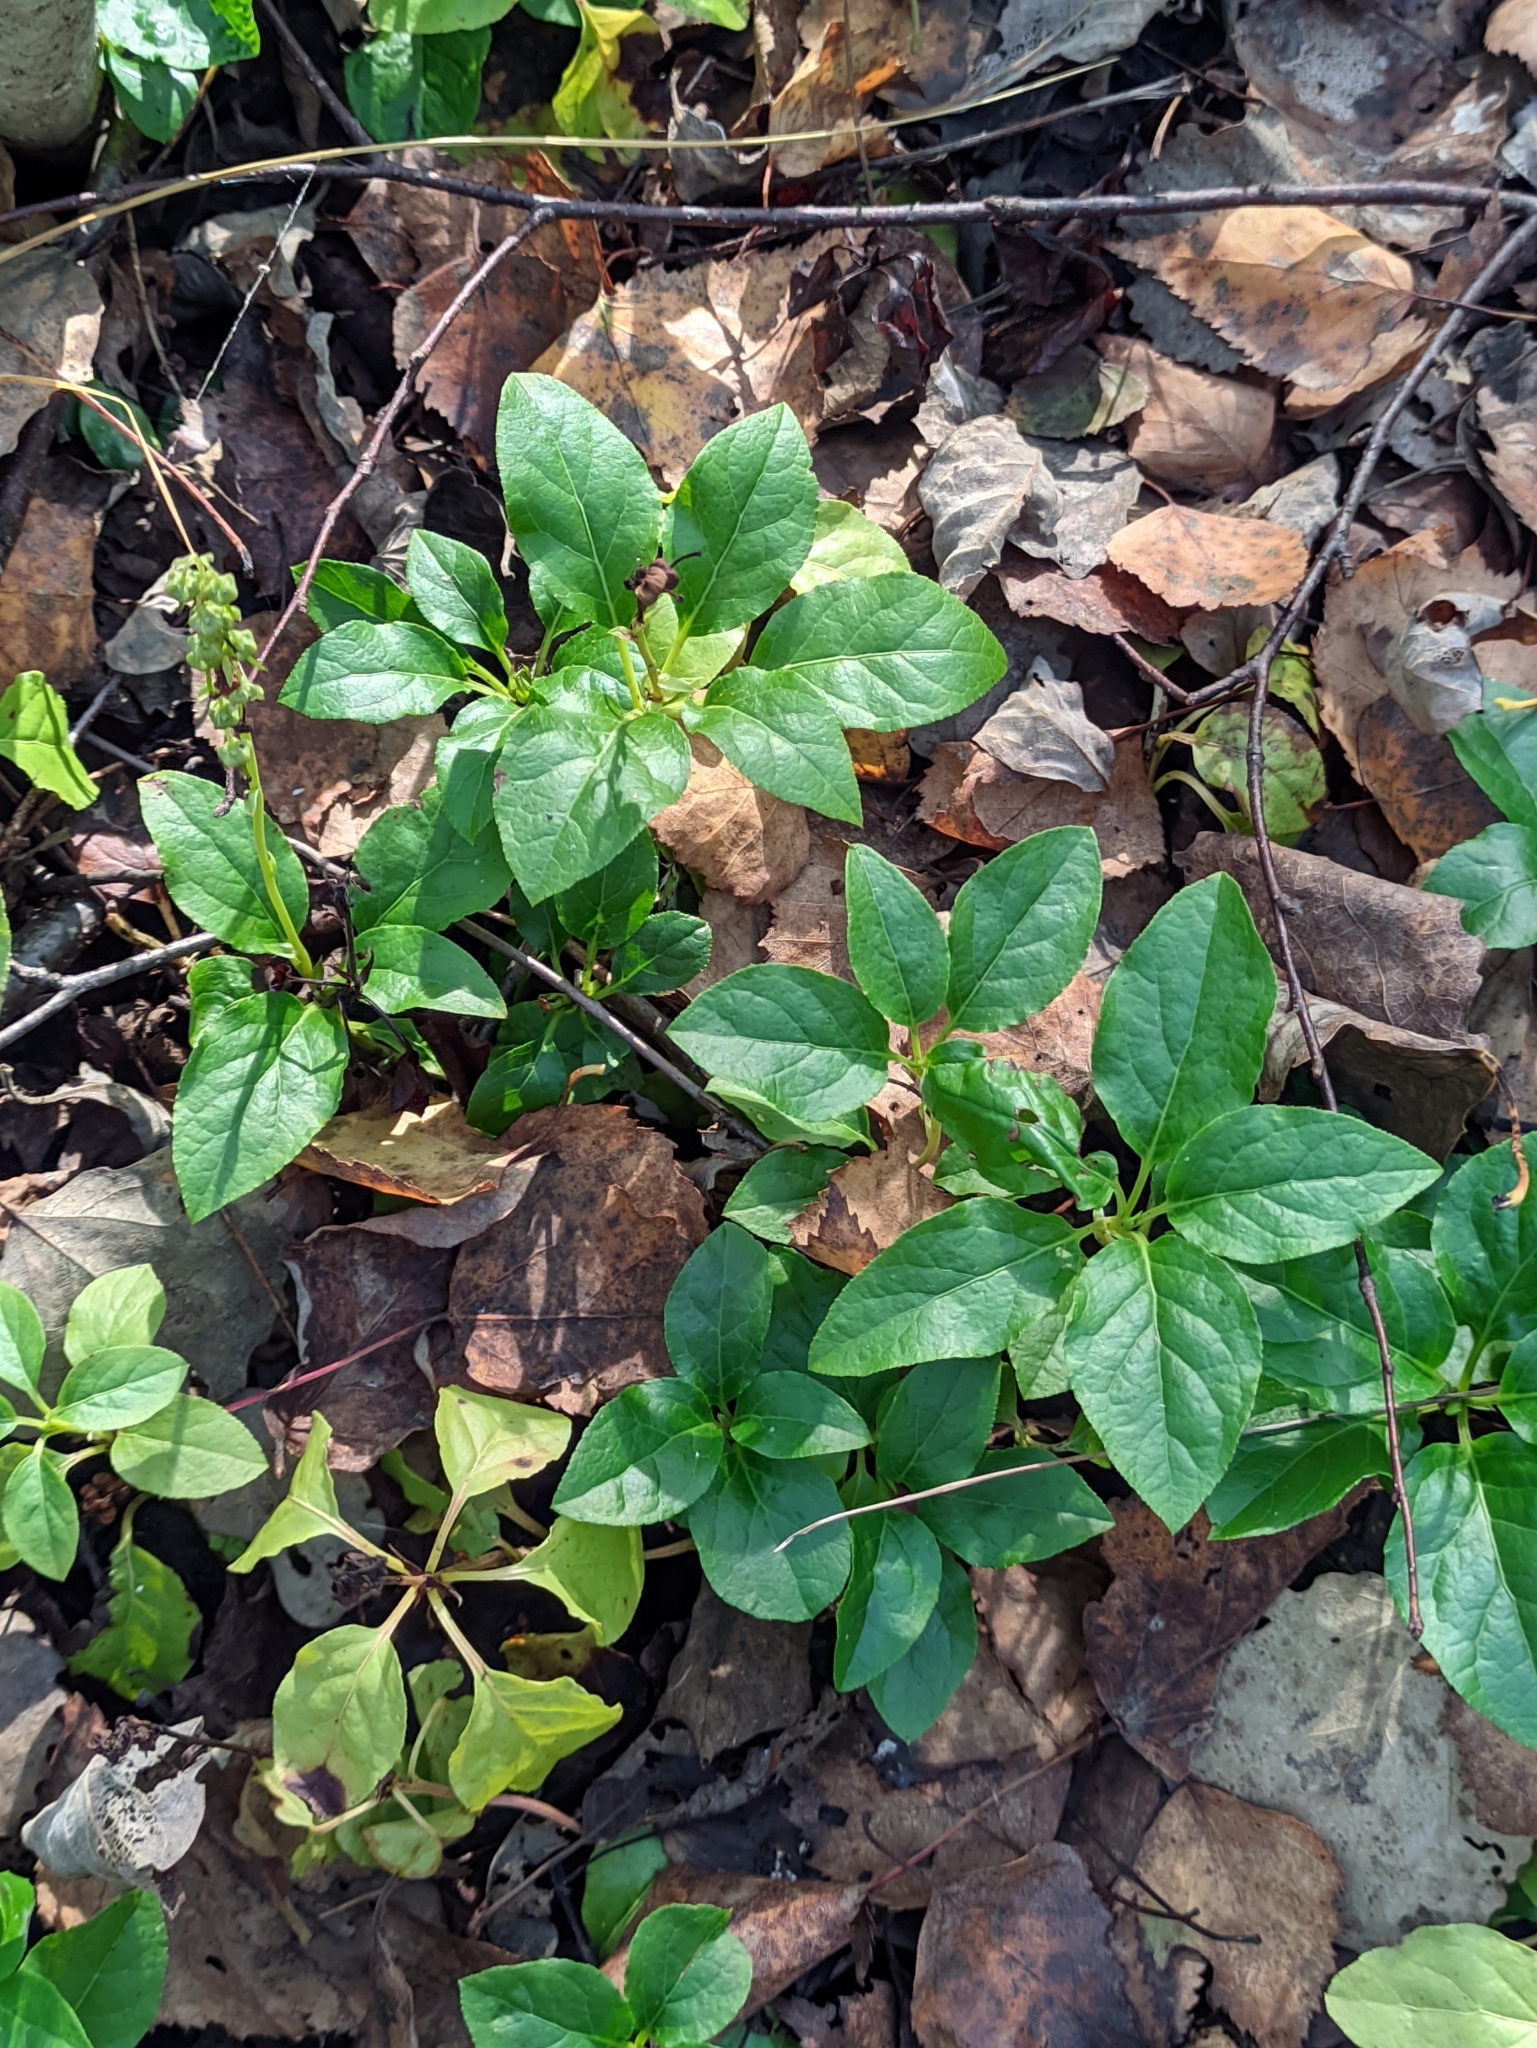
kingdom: Plantae
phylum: Tracheophyta
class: Magnoliopsida
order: Ericales
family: Ericaceae
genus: Orthilia
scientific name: Orthilia secunda
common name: One-sided orthilia
